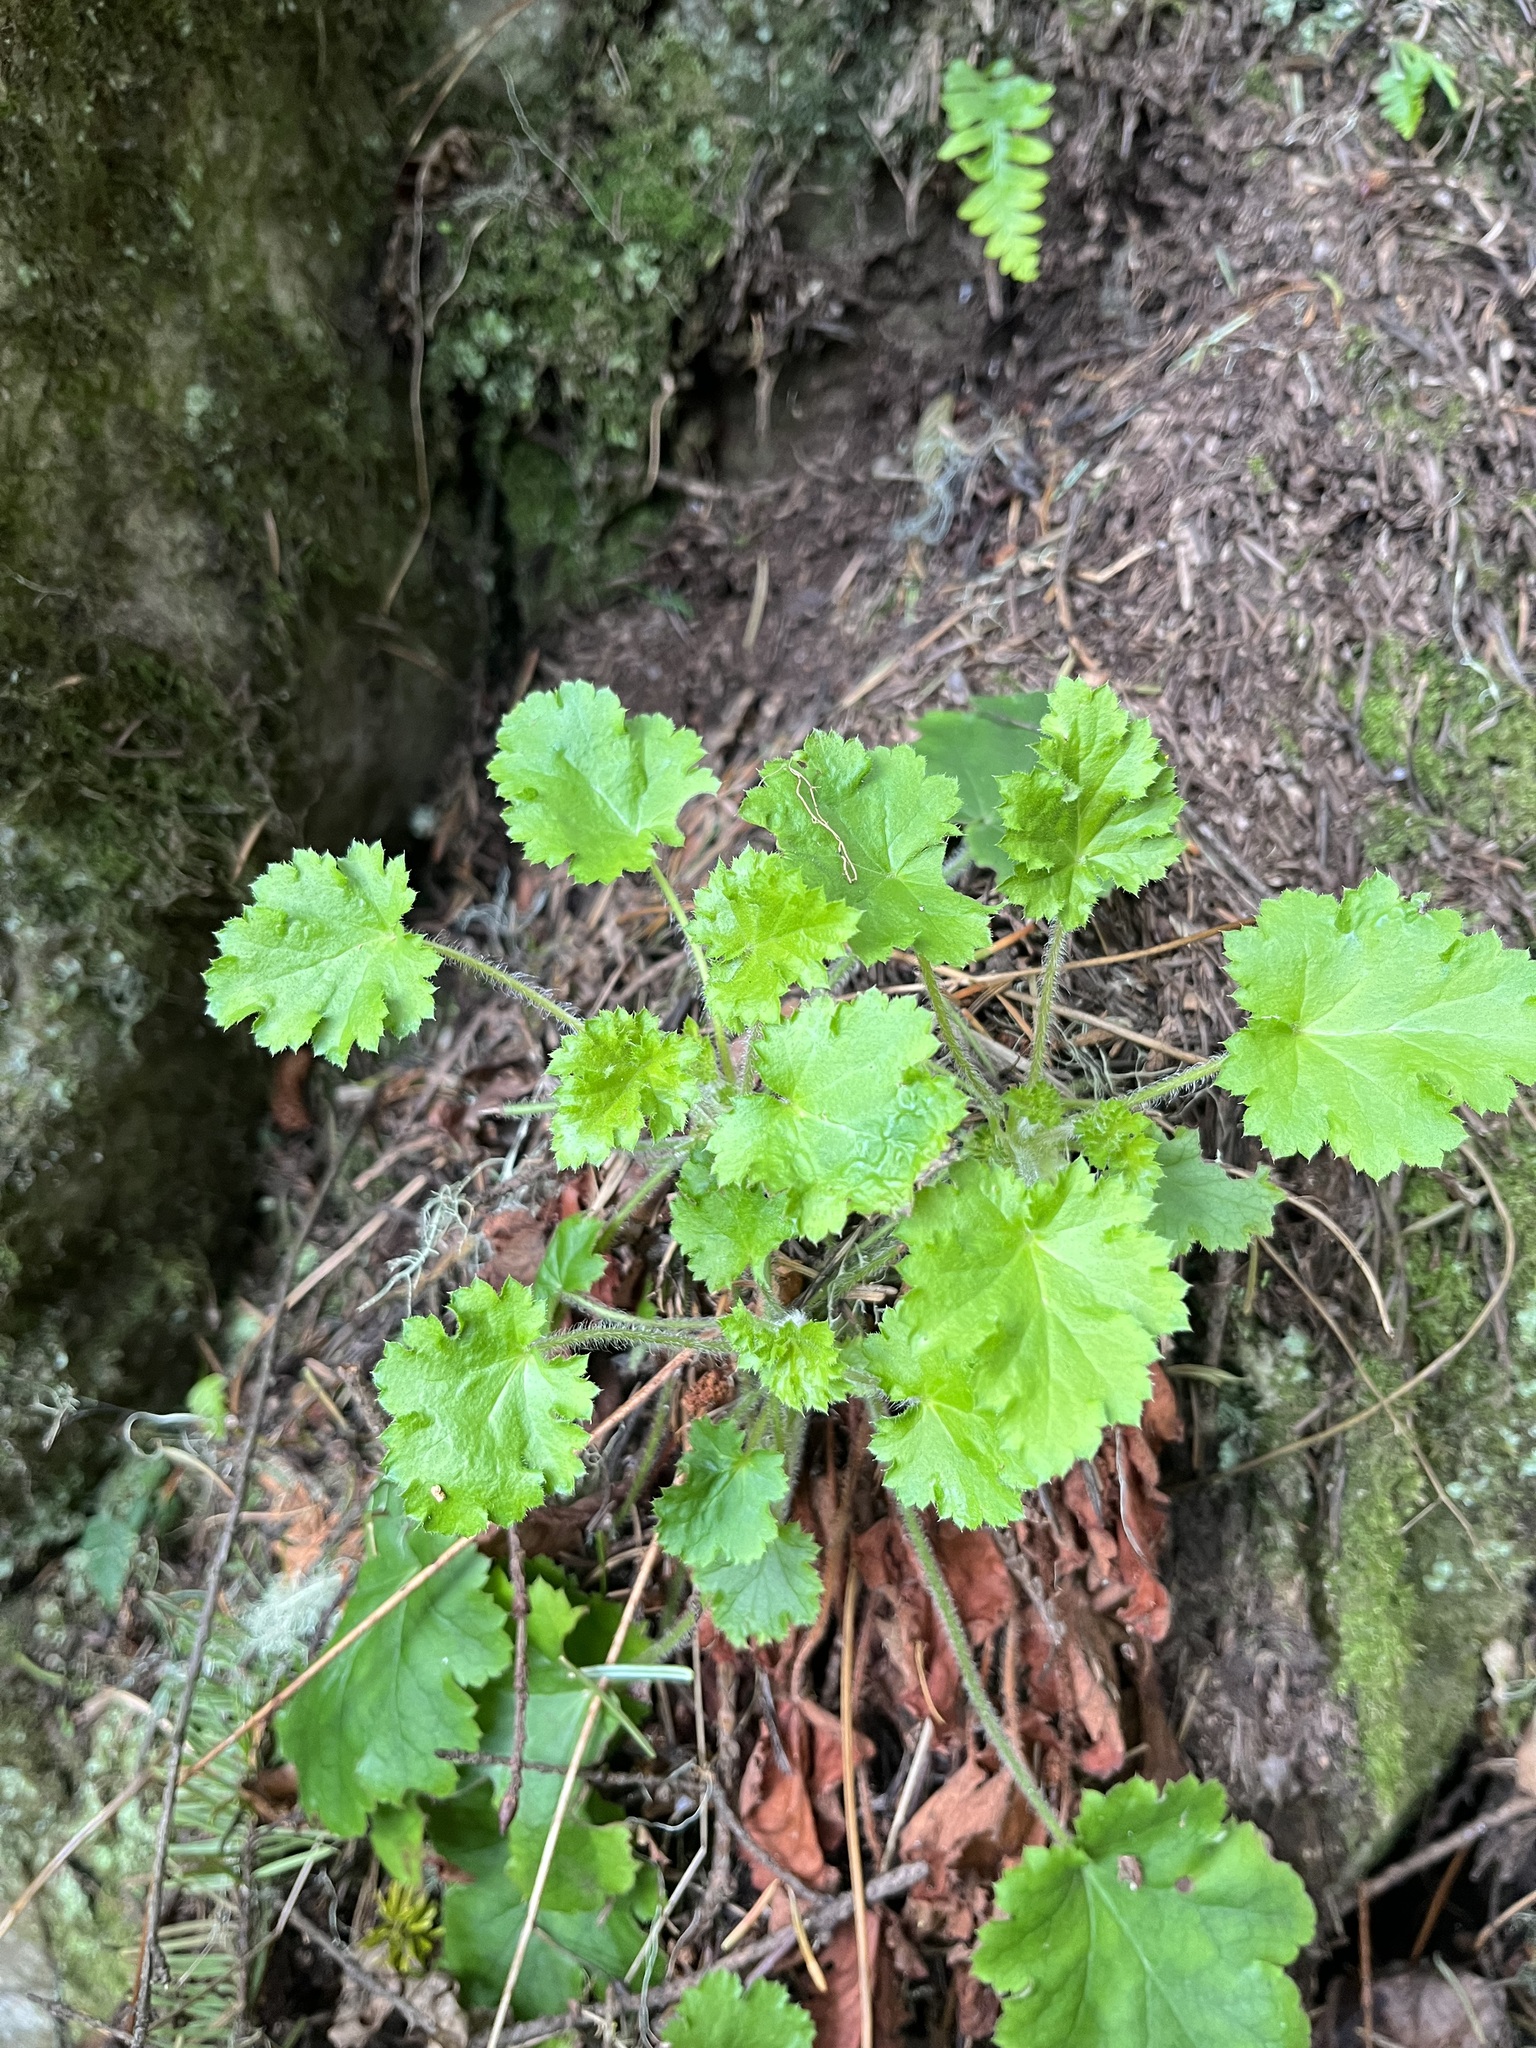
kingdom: Plantae
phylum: Tracheophyta
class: Magnoliopsida
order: Saxifragales
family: Saxifragaceae
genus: Heuchera
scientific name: Heuchera micrantha
